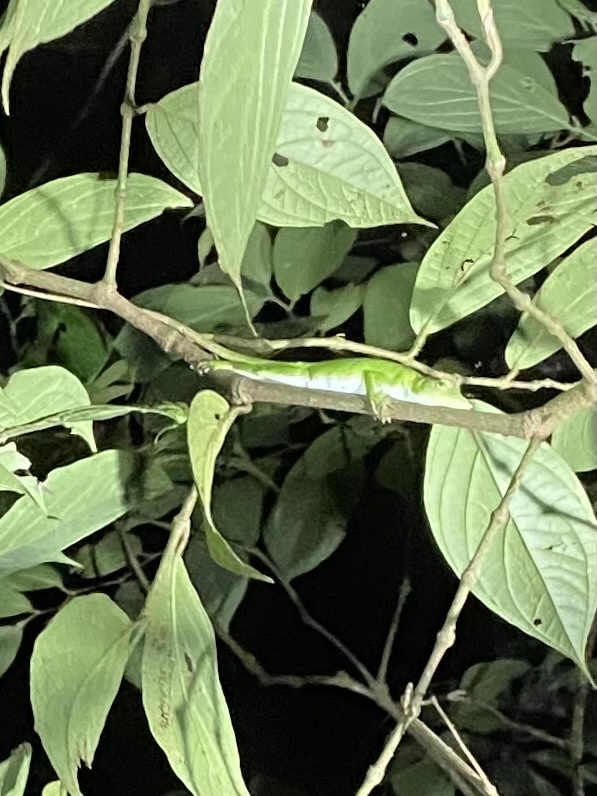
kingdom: Animalia
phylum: Chordata
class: Squamata
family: Dactyloidae
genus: Anolis
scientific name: Anolis biporcatus
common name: Giant green anole
